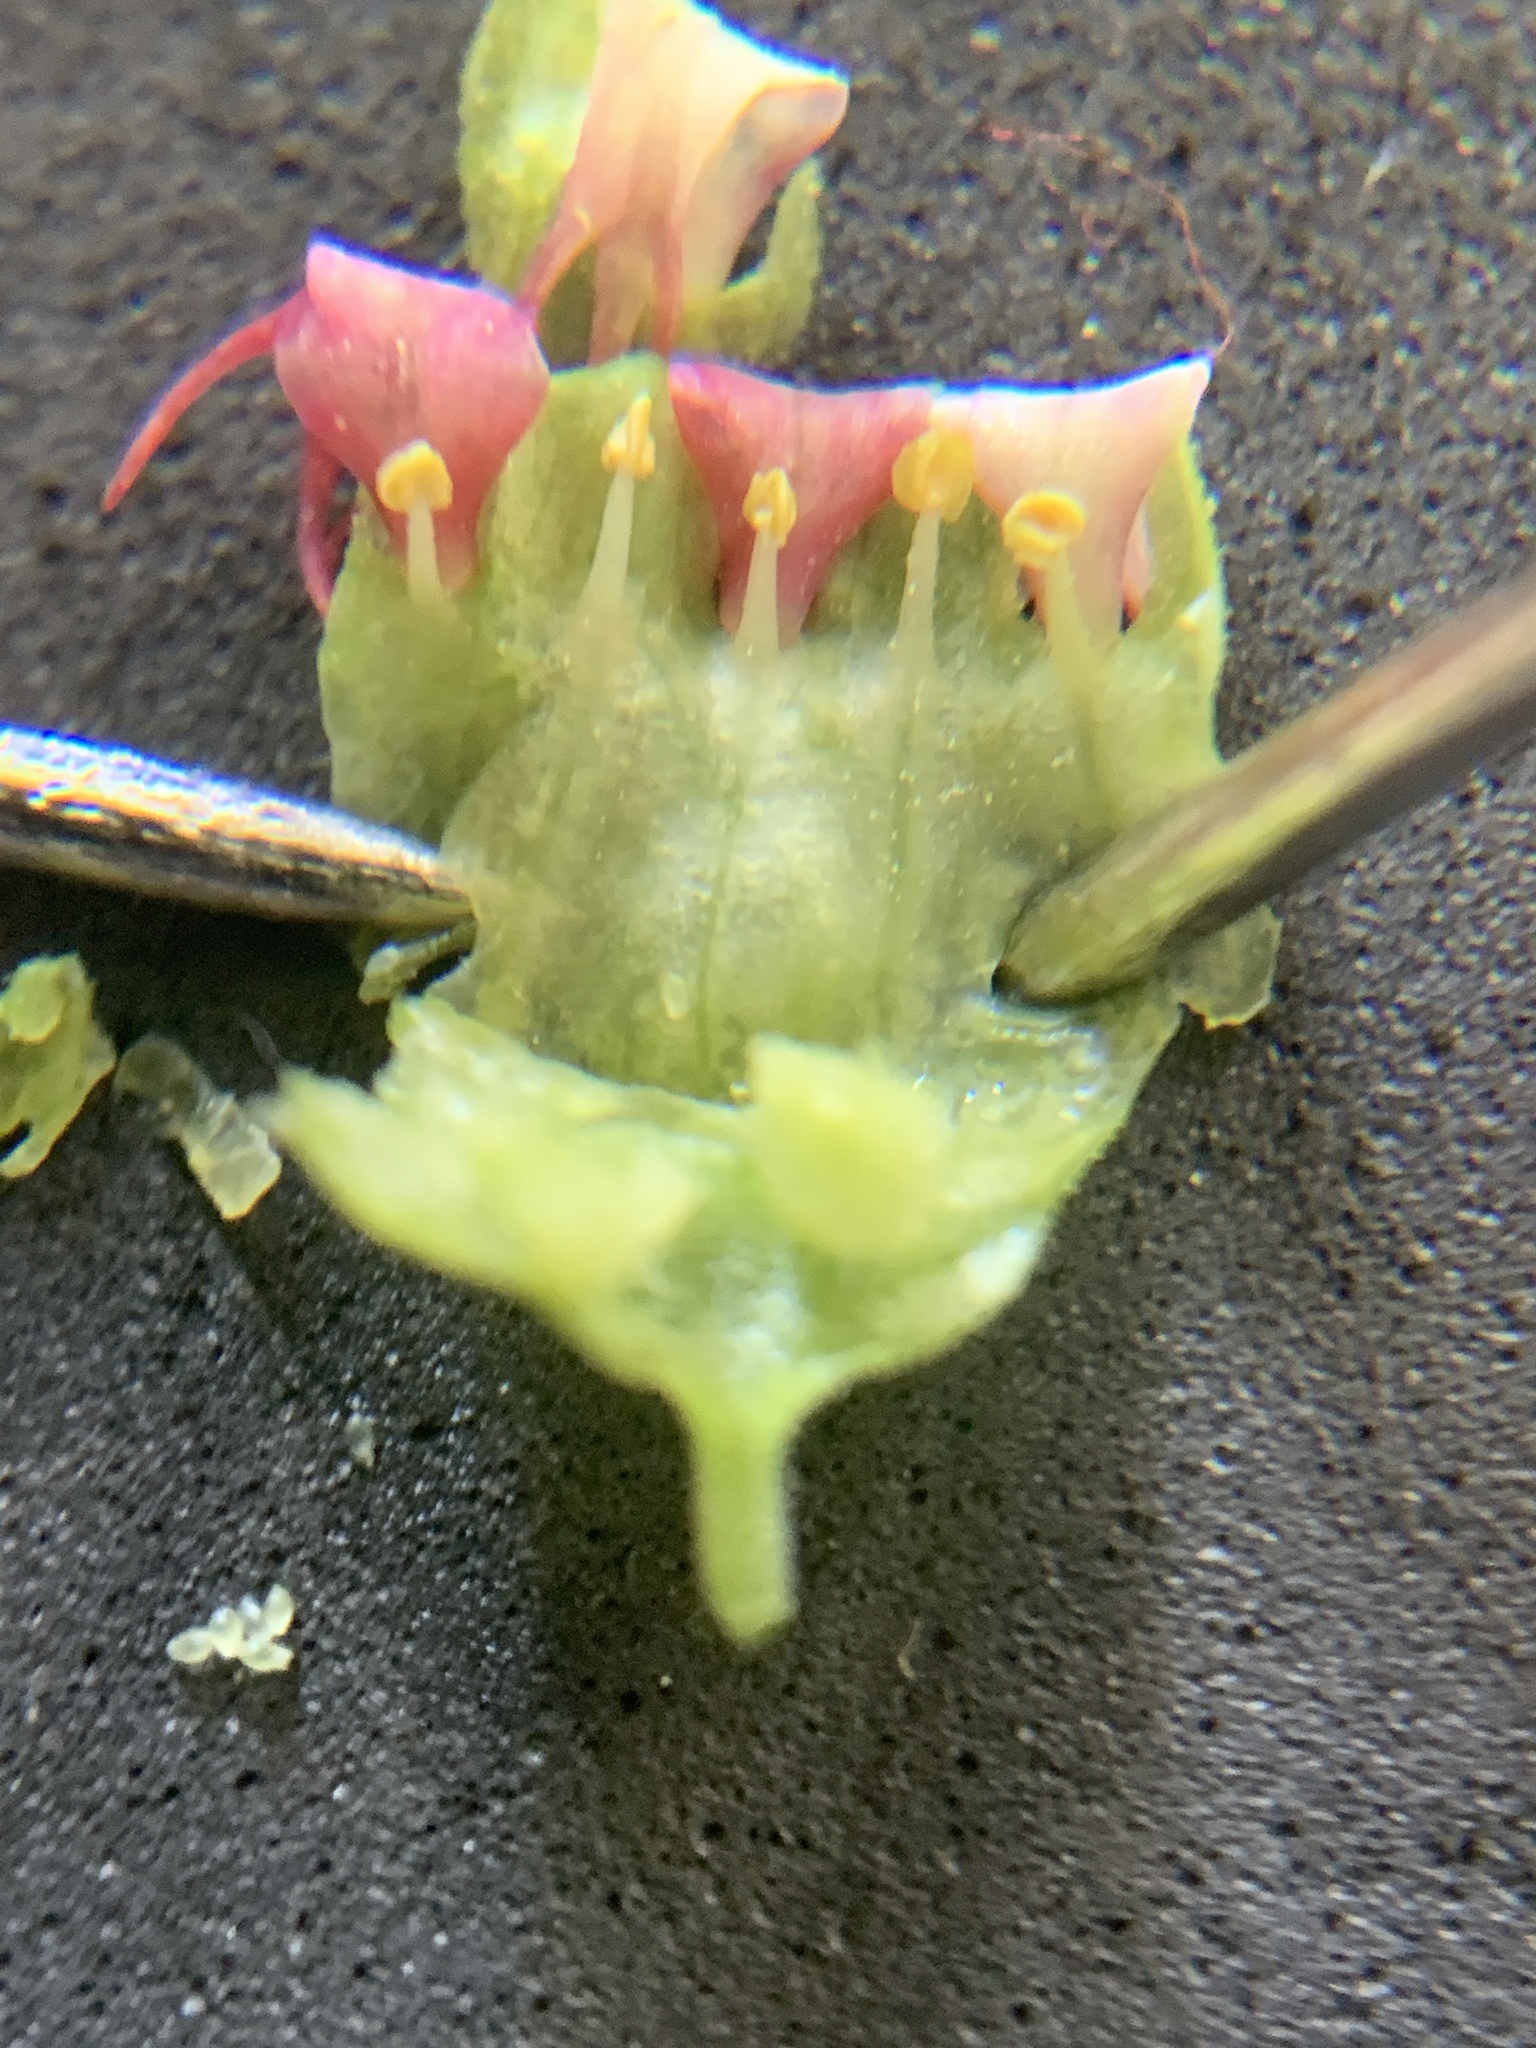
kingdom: Plantae
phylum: Tracheophyta
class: Magnoliopsida
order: Saxifragales
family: Saxifragaceae
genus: Tellima
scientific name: Tellima grandiflora
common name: Fringecups
